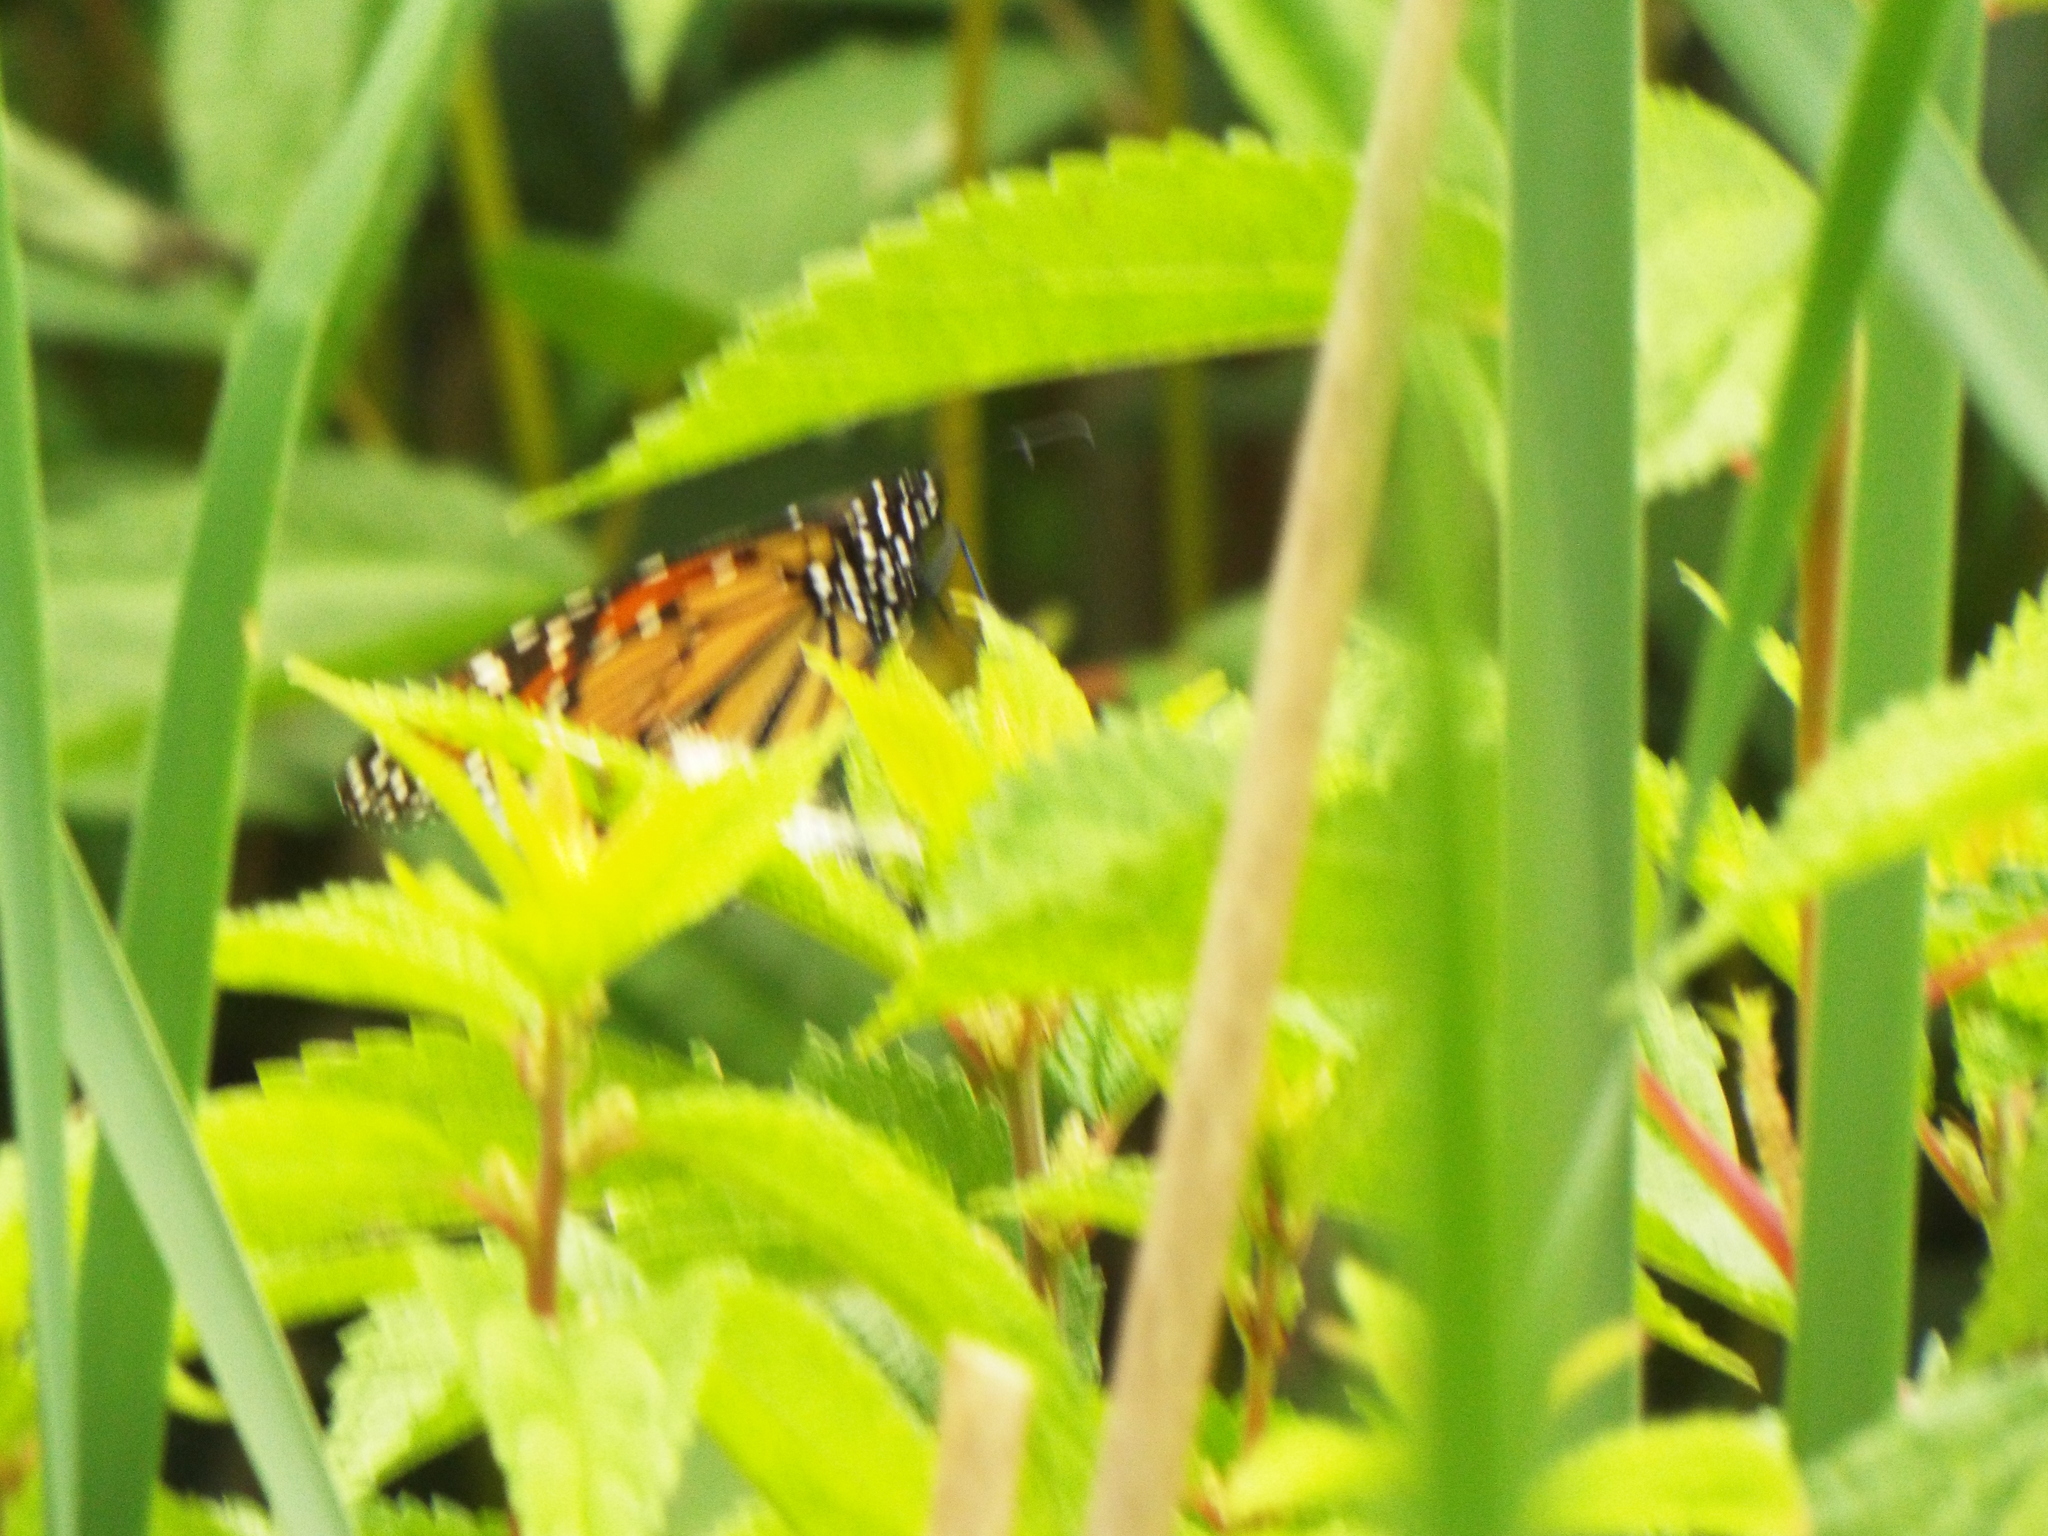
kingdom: Animalia
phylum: Arthropoda
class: Insecta
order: Lepidoptera
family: Nymphalidae
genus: Danaus
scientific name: Danaus plexippus
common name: Monarch
